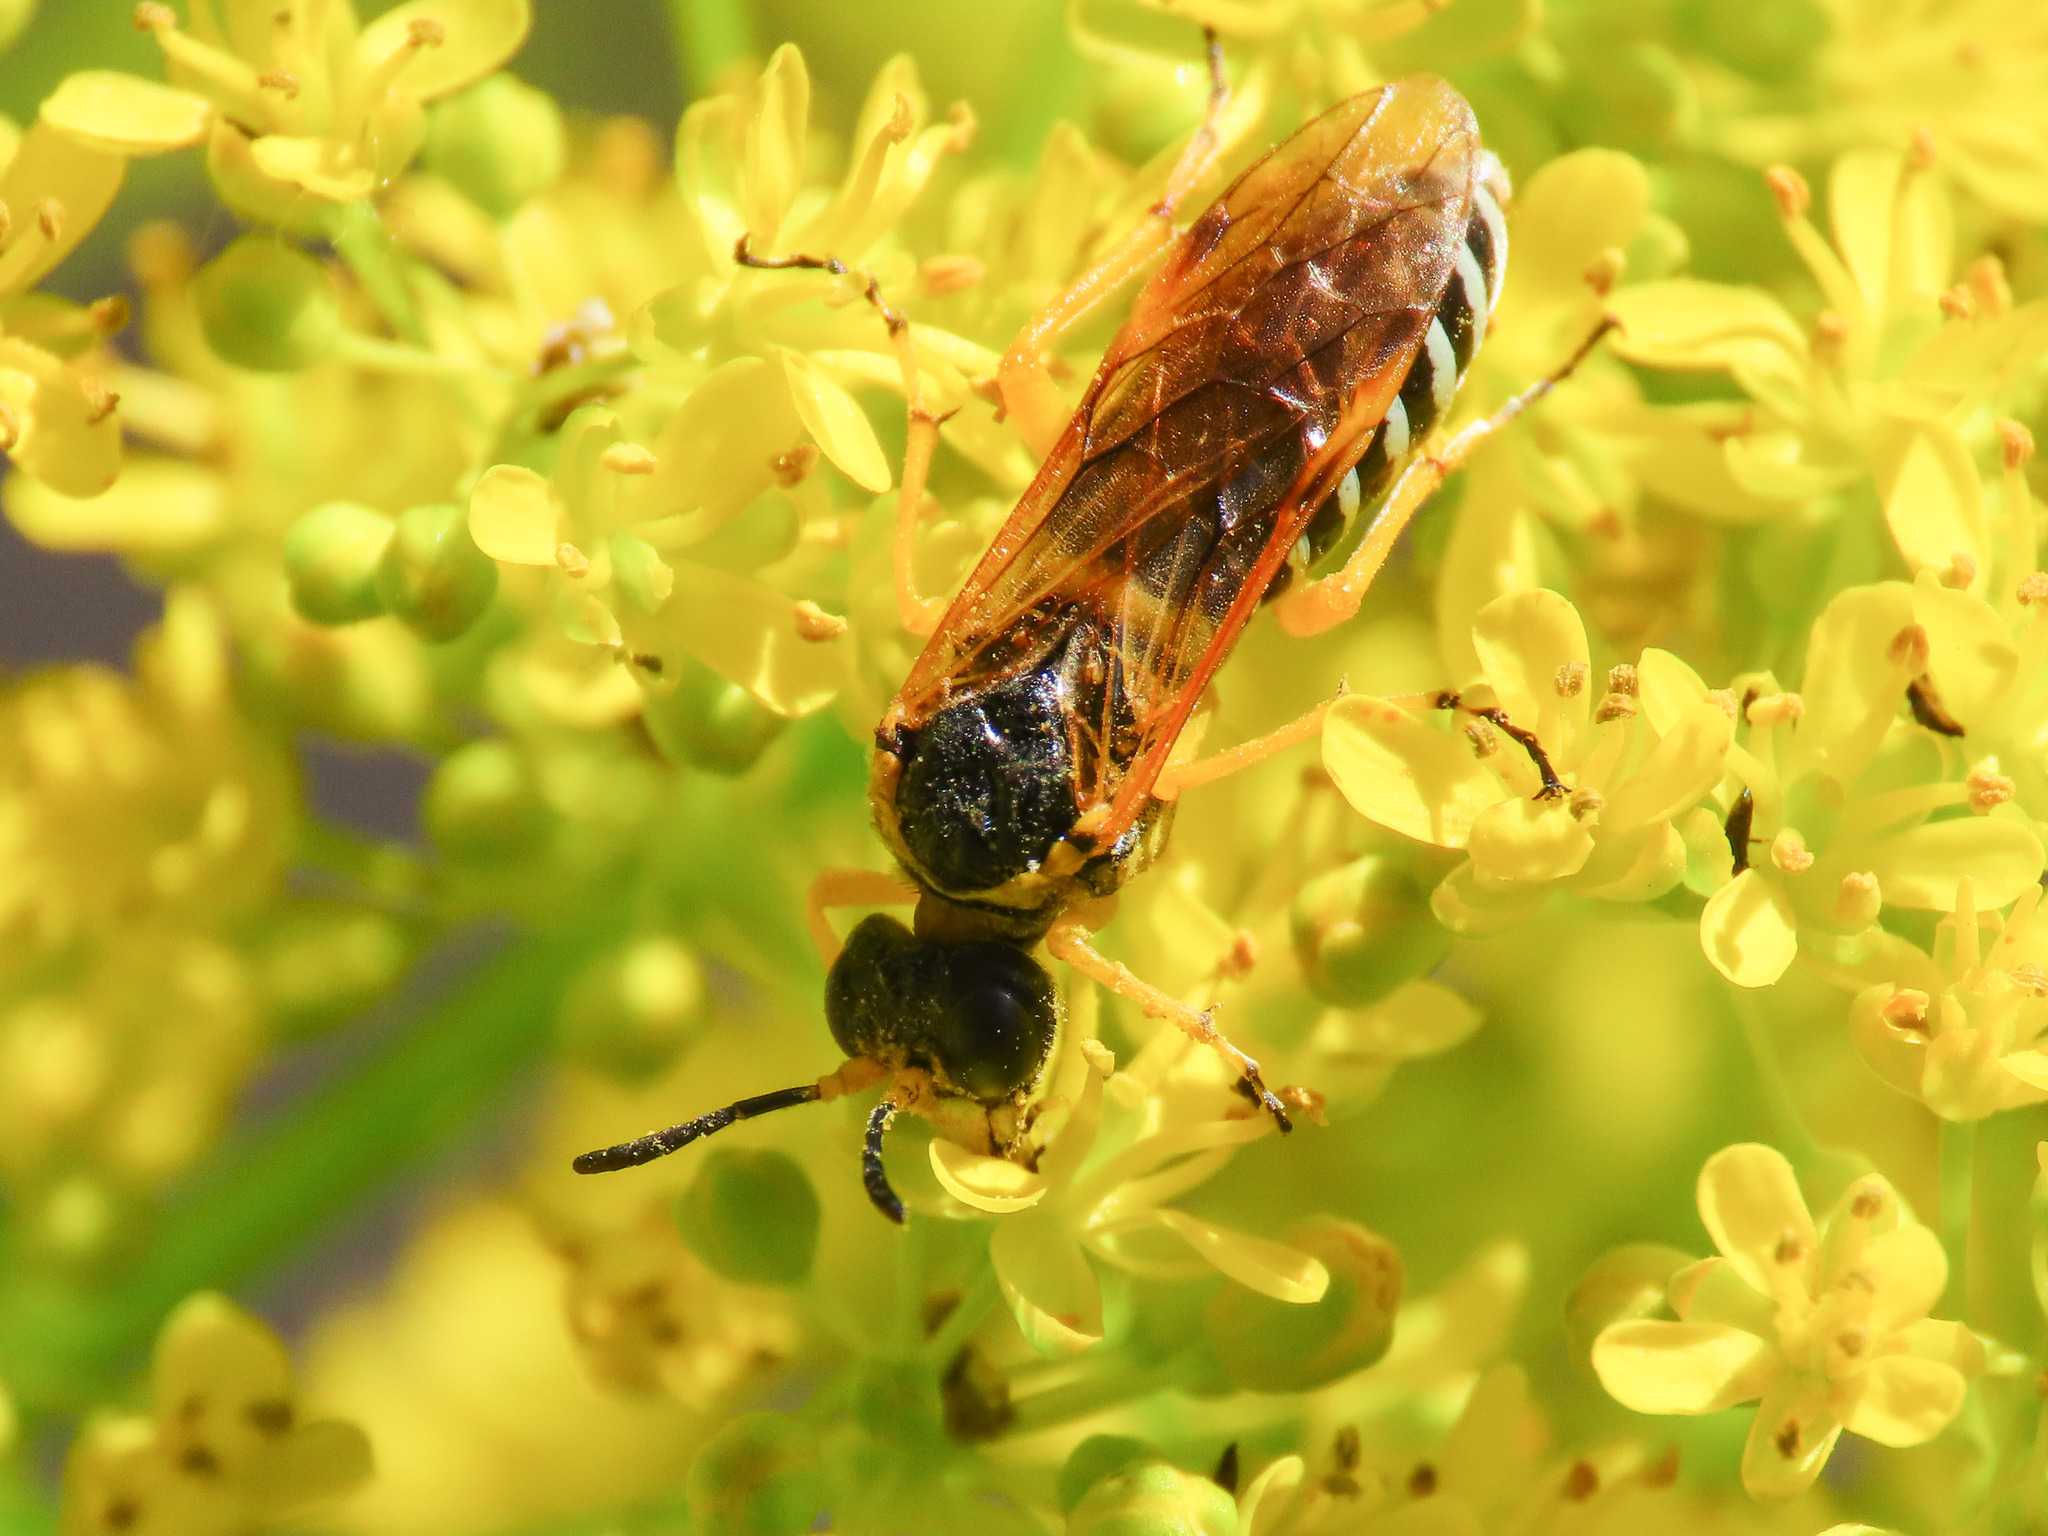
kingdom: Animalia
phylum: Arthropoda
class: Insecta
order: Hymenoptera
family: Tenthredinidae
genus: Tenthredo
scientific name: Tenthredo flaveola
